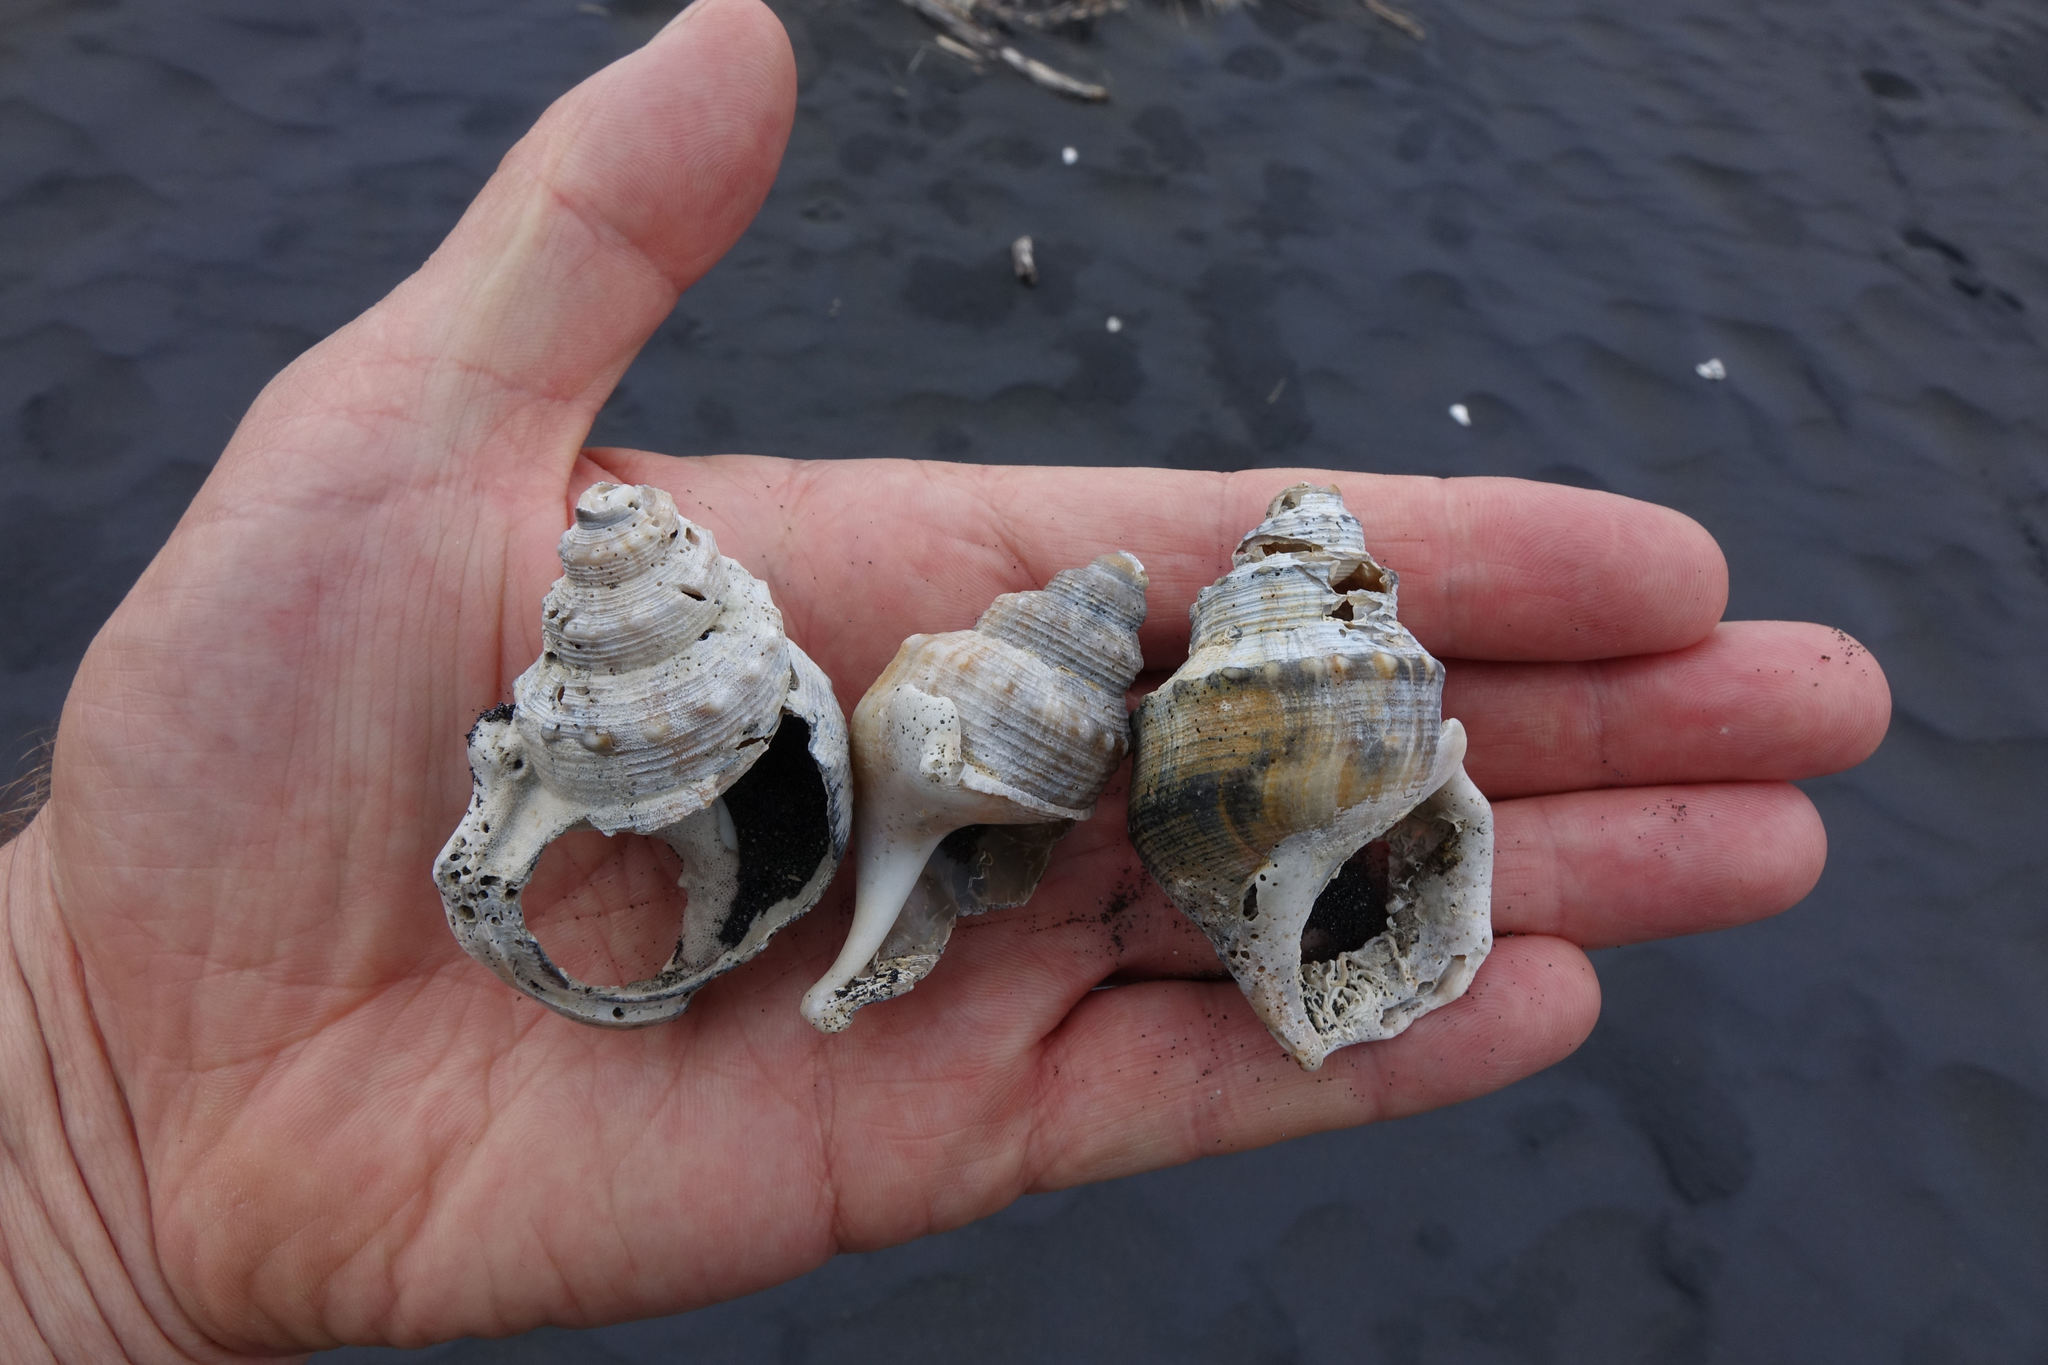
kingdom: Animalia
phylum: Mollusca
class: Gastropoda
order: Littorinimorpha
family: Struthiolariidae
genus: Struthiolaria
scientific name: Struthiolaria papulosa
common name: Large ostrich foot
